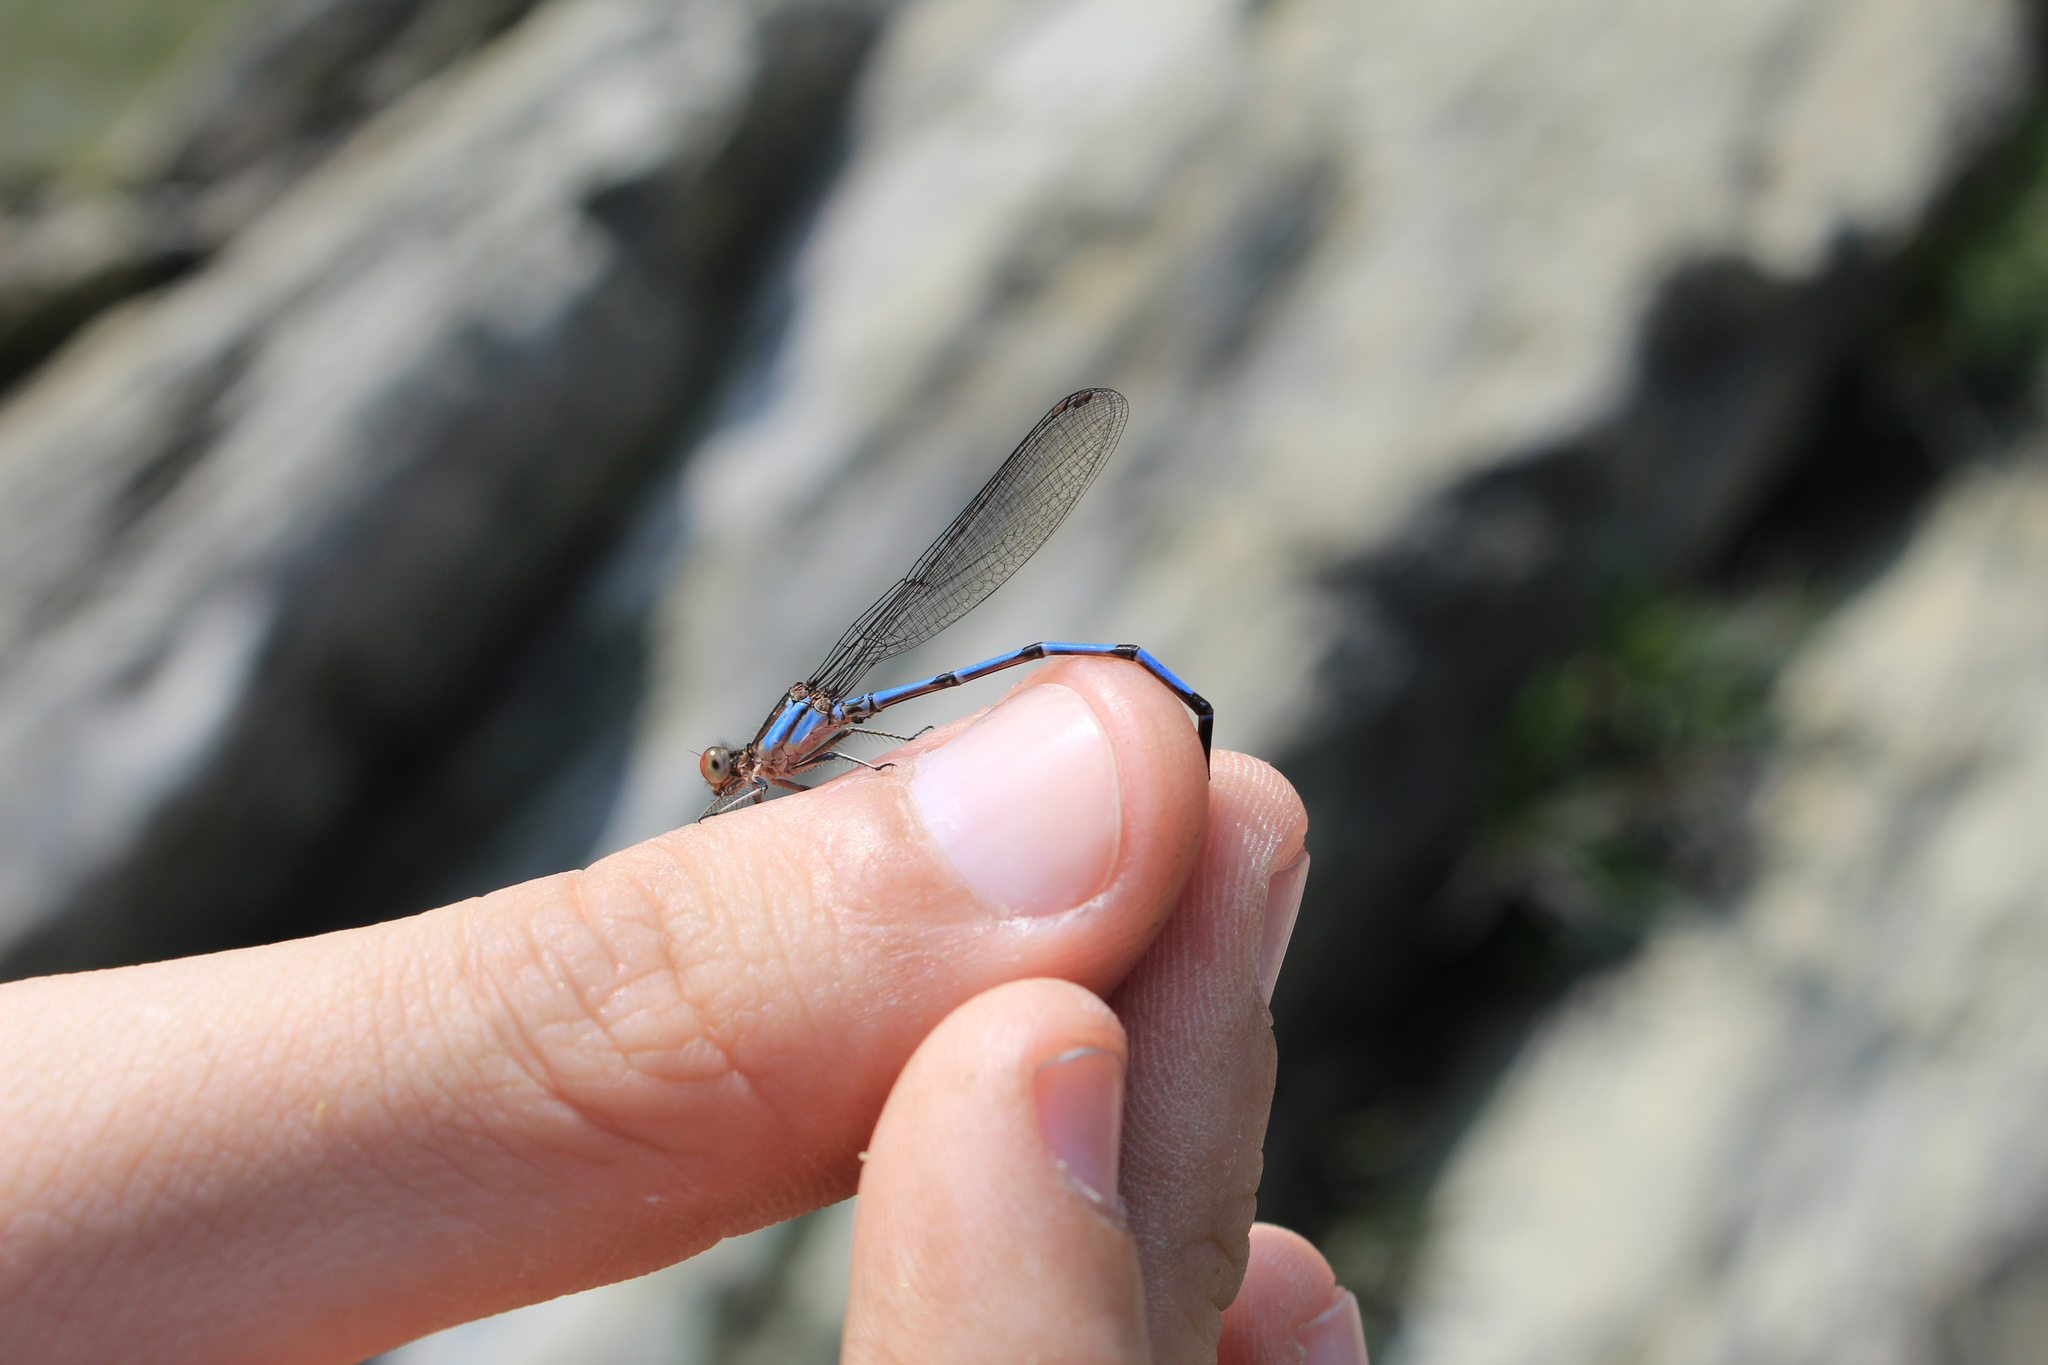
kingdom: Animalia
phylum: Arthropoda
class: Insecta
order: Odonata
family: Coenagrionidae
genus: Argia
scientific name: Argia oenea
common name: Fiery-eyed dancer
